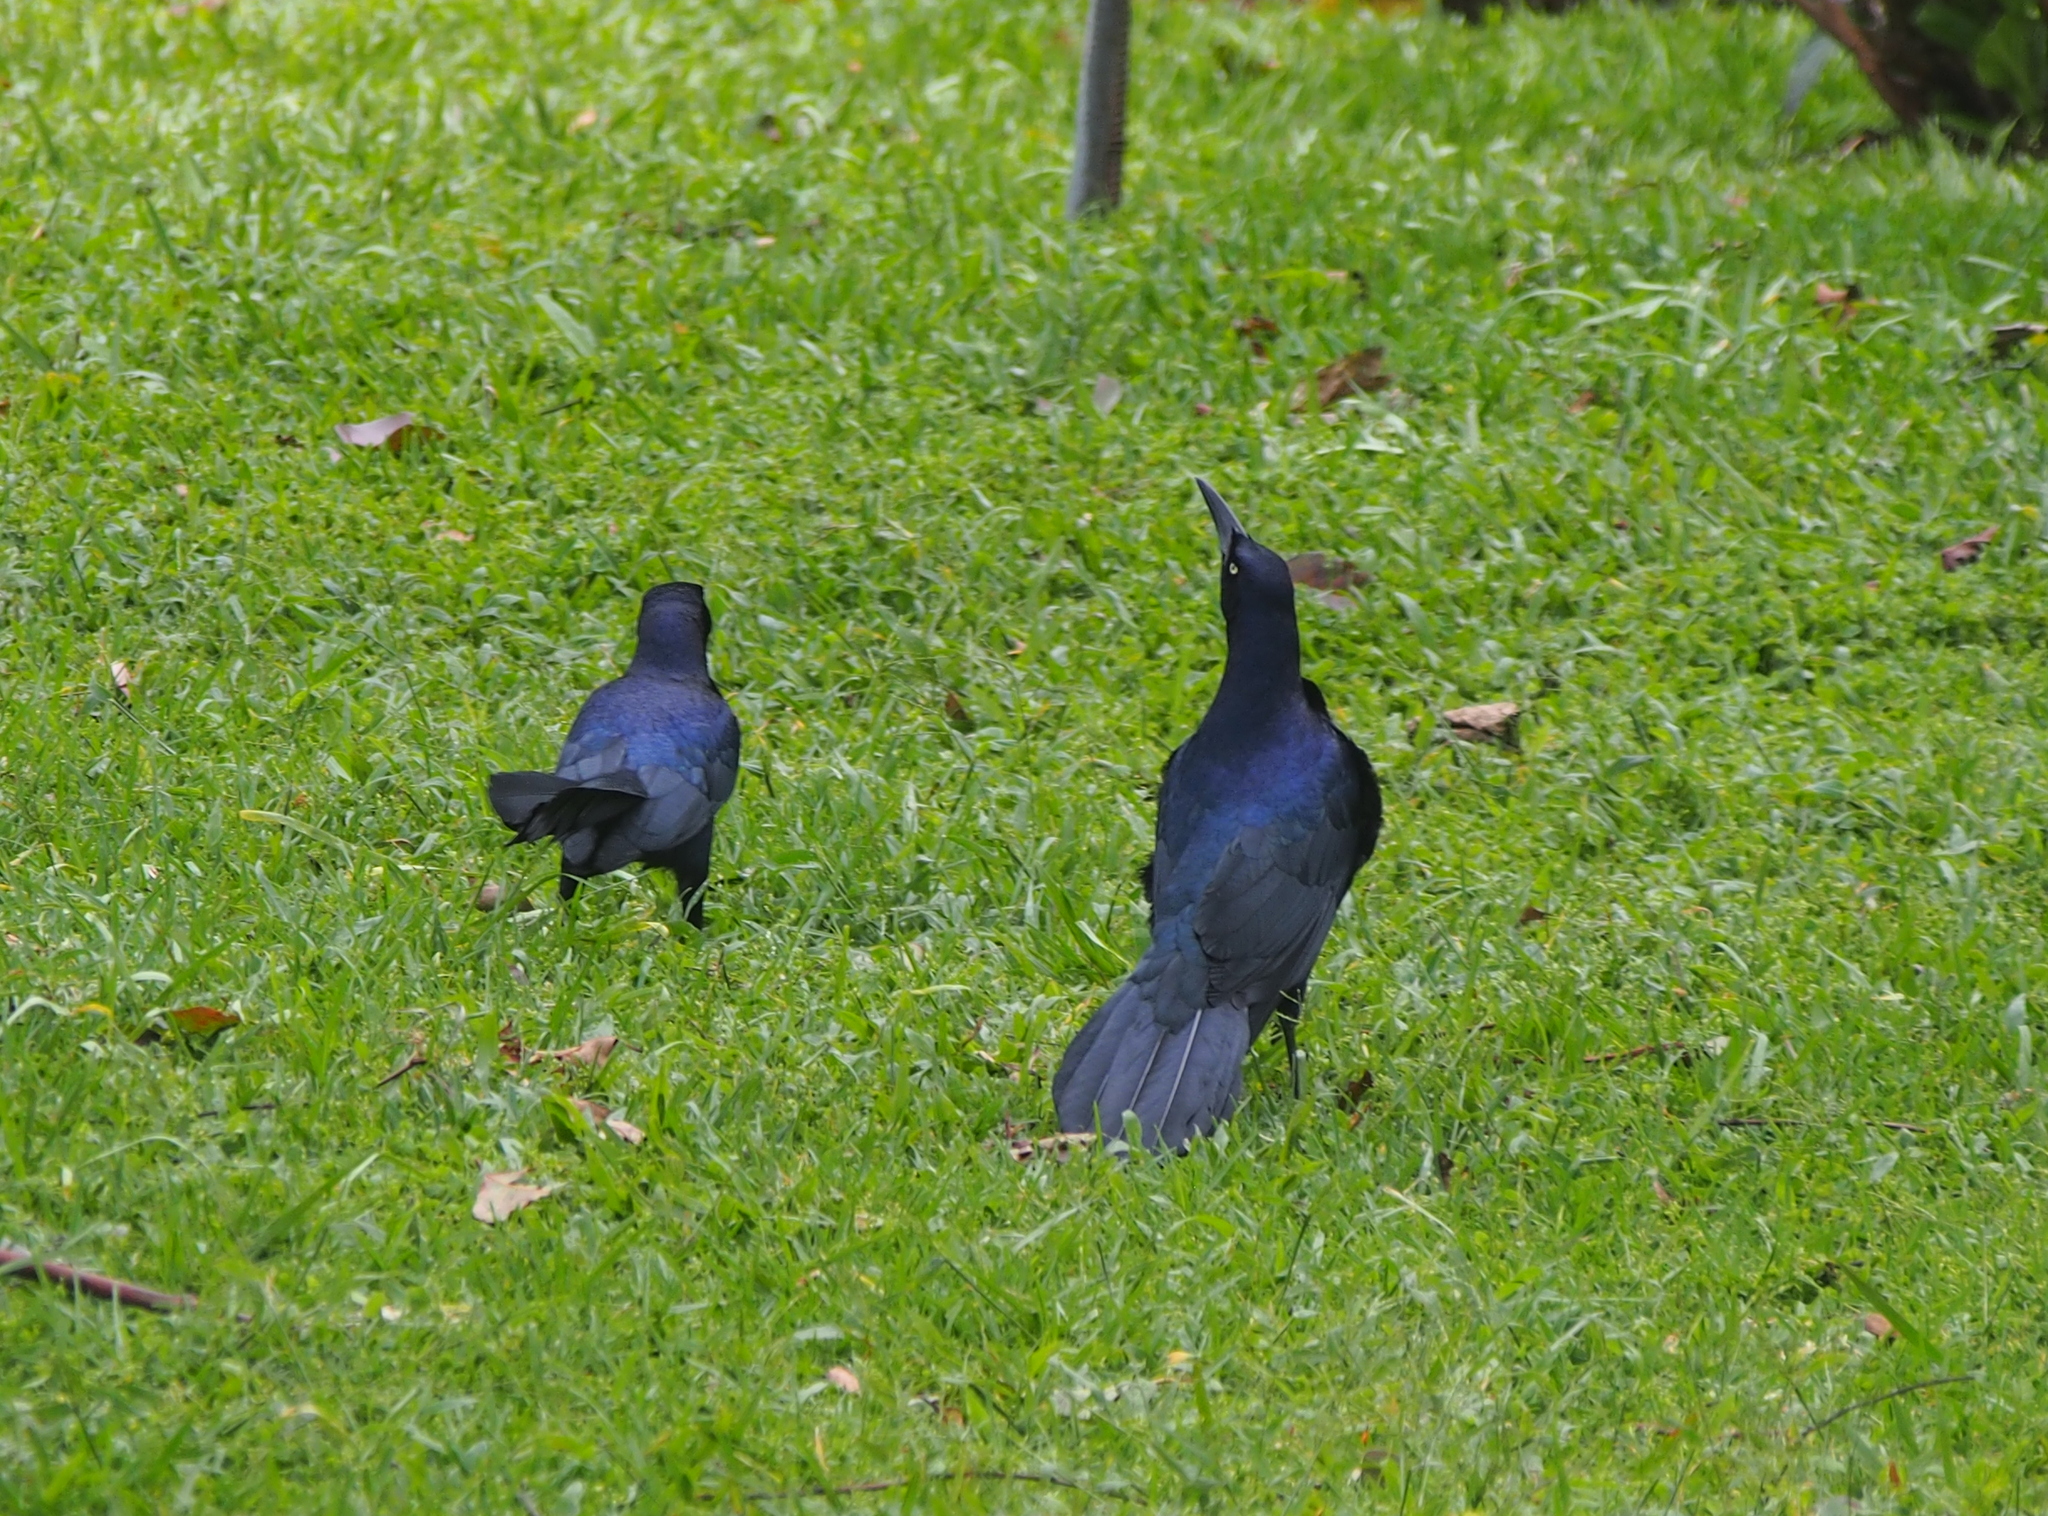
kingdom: Animalia
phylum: Chordata
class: Aves
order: Passeriformes
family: Icteridae
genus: Quiscalus
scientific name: Quiscalus mexicanus
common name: Great-tailed grackle
